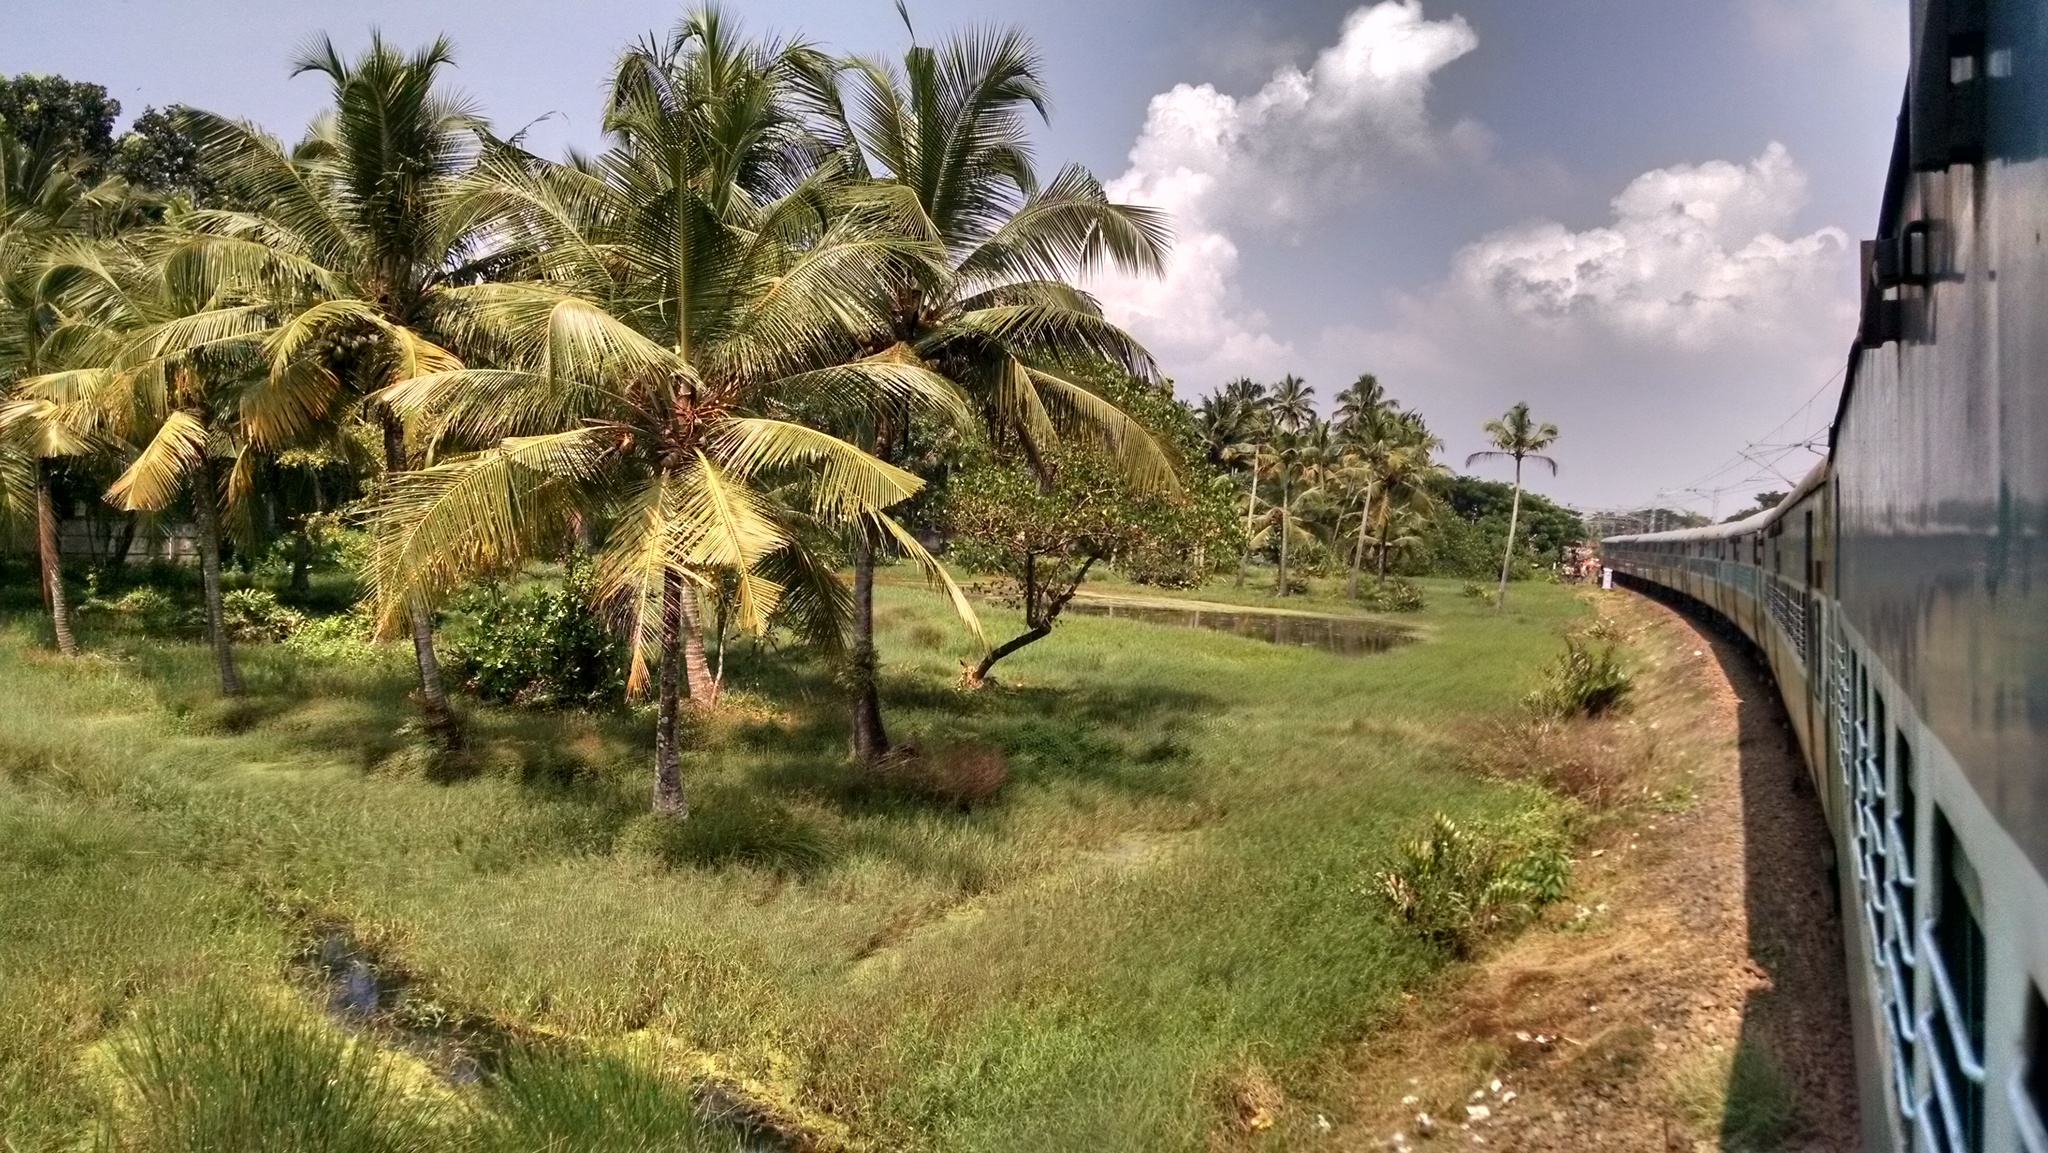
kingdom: Plantae
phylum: Tracheophyta
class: Liliopsida
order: Arecales
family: Arecaceae
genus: Cocos
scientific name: Cocos nucifera
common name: Coconut palm
